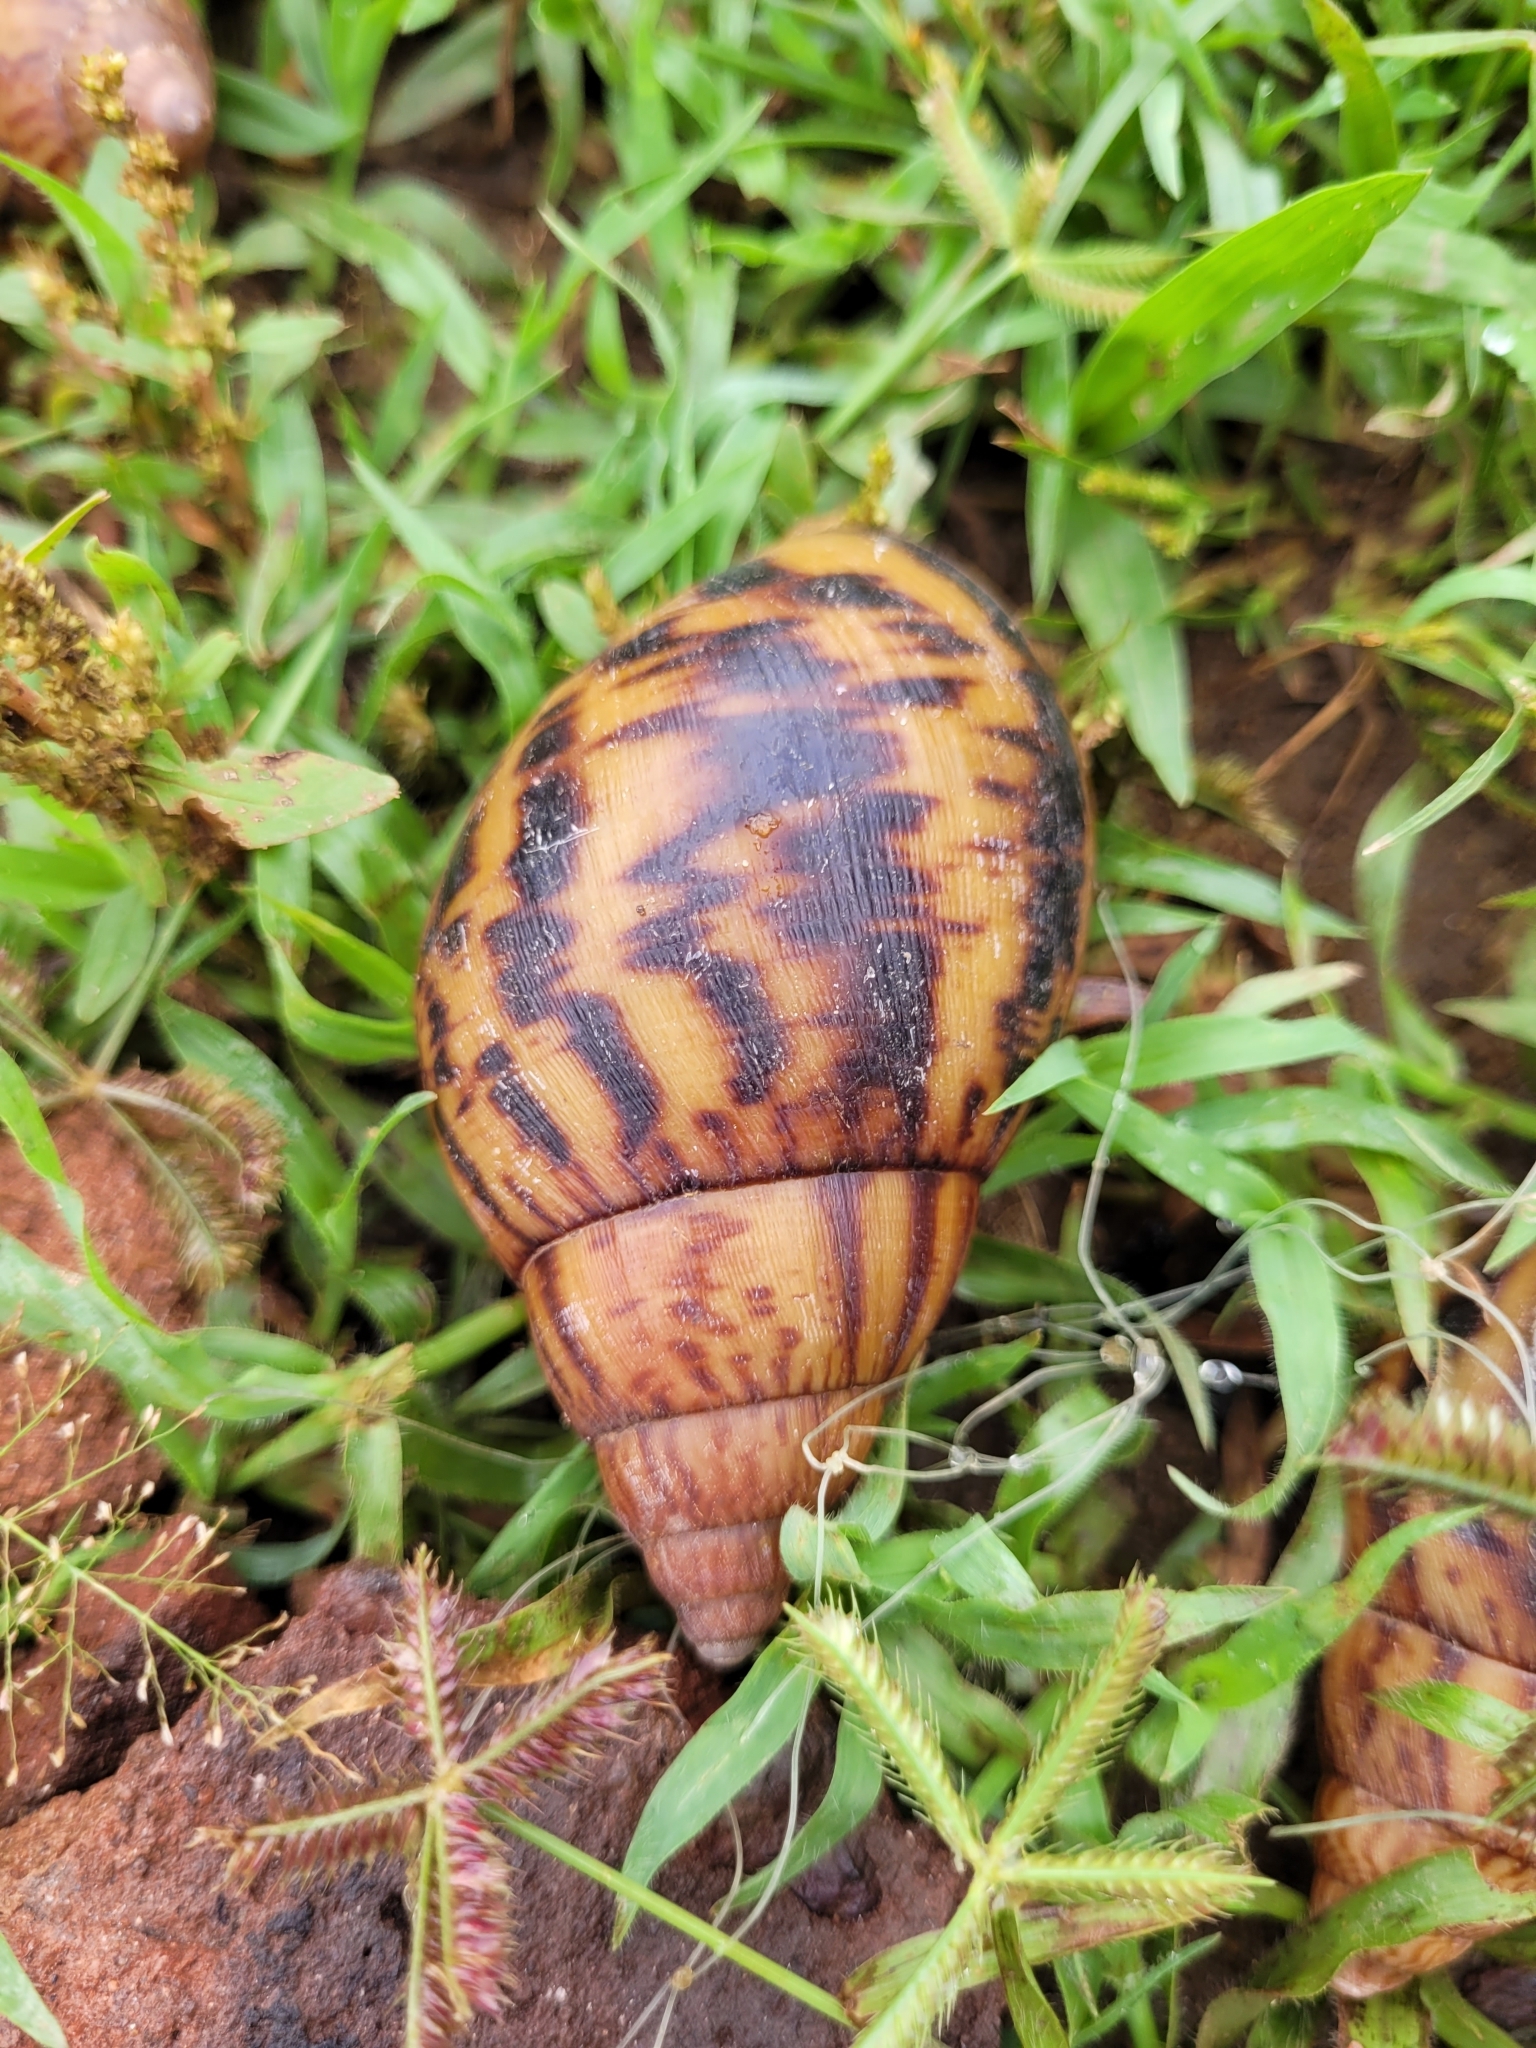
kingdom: Animalia
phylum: Mollusca
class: Gastropoda
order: Stylommatophora
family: Achatinidae
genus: Achatina
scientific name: Achatina achatina
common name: Common african snail
